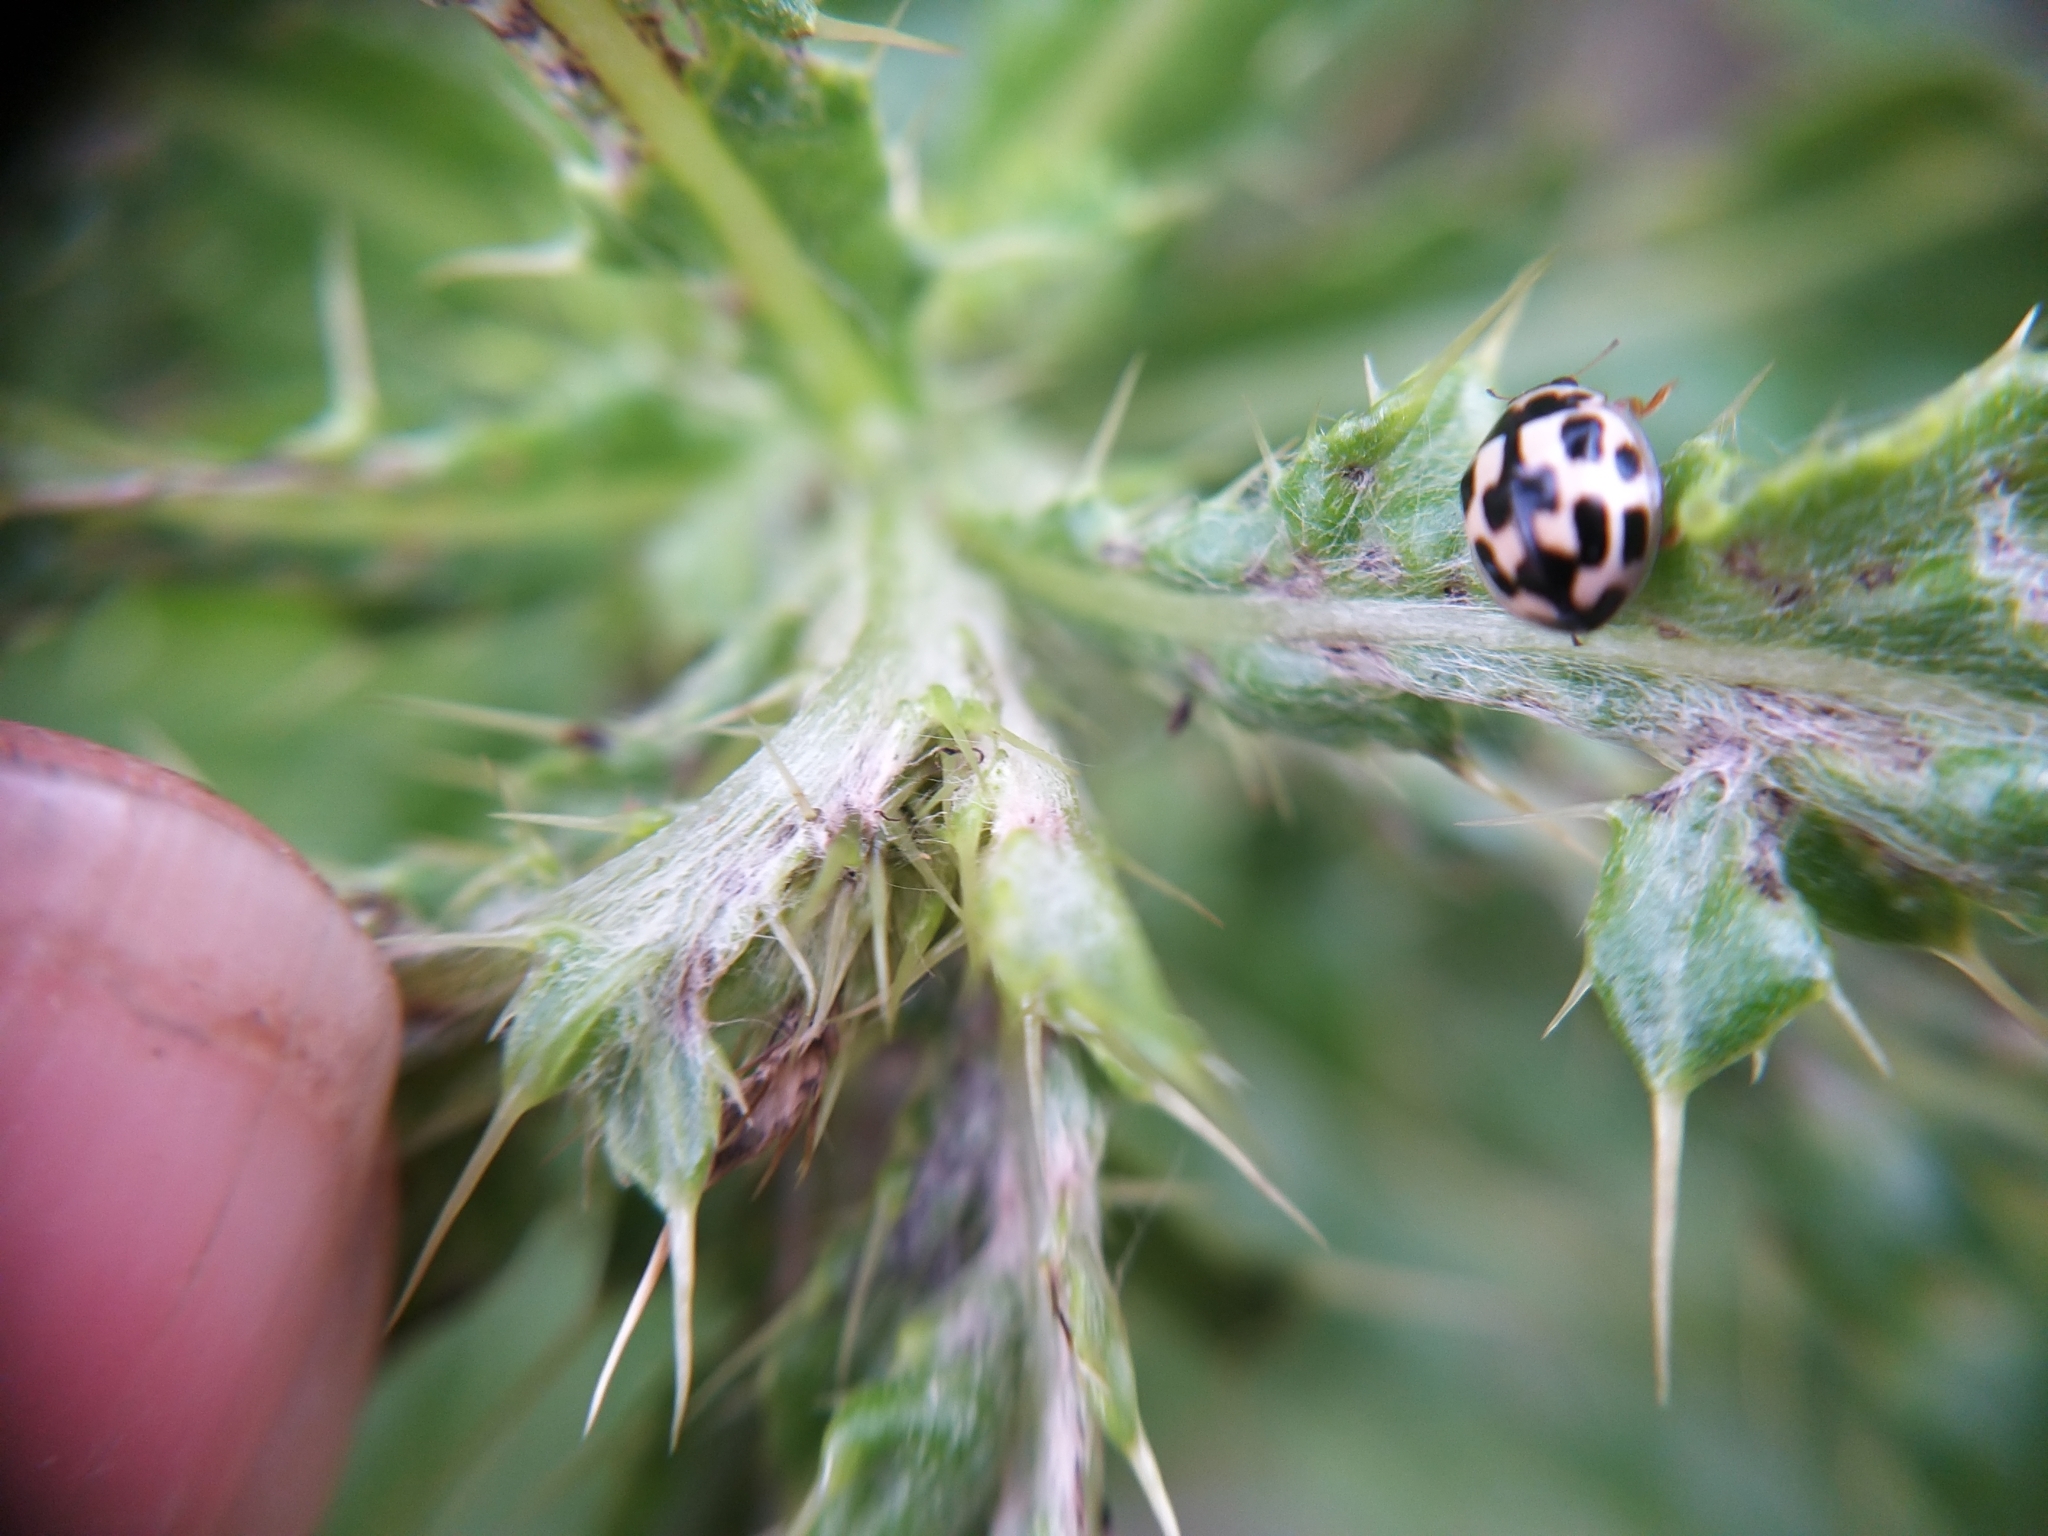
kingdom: Animalia
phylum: Arthropoda
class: Insecta
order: Coleoptera
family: Coccinellidae
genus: Propylaea
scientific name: Propylaea quatuordecimpunctata
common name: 14-spotted ladybird beetle
